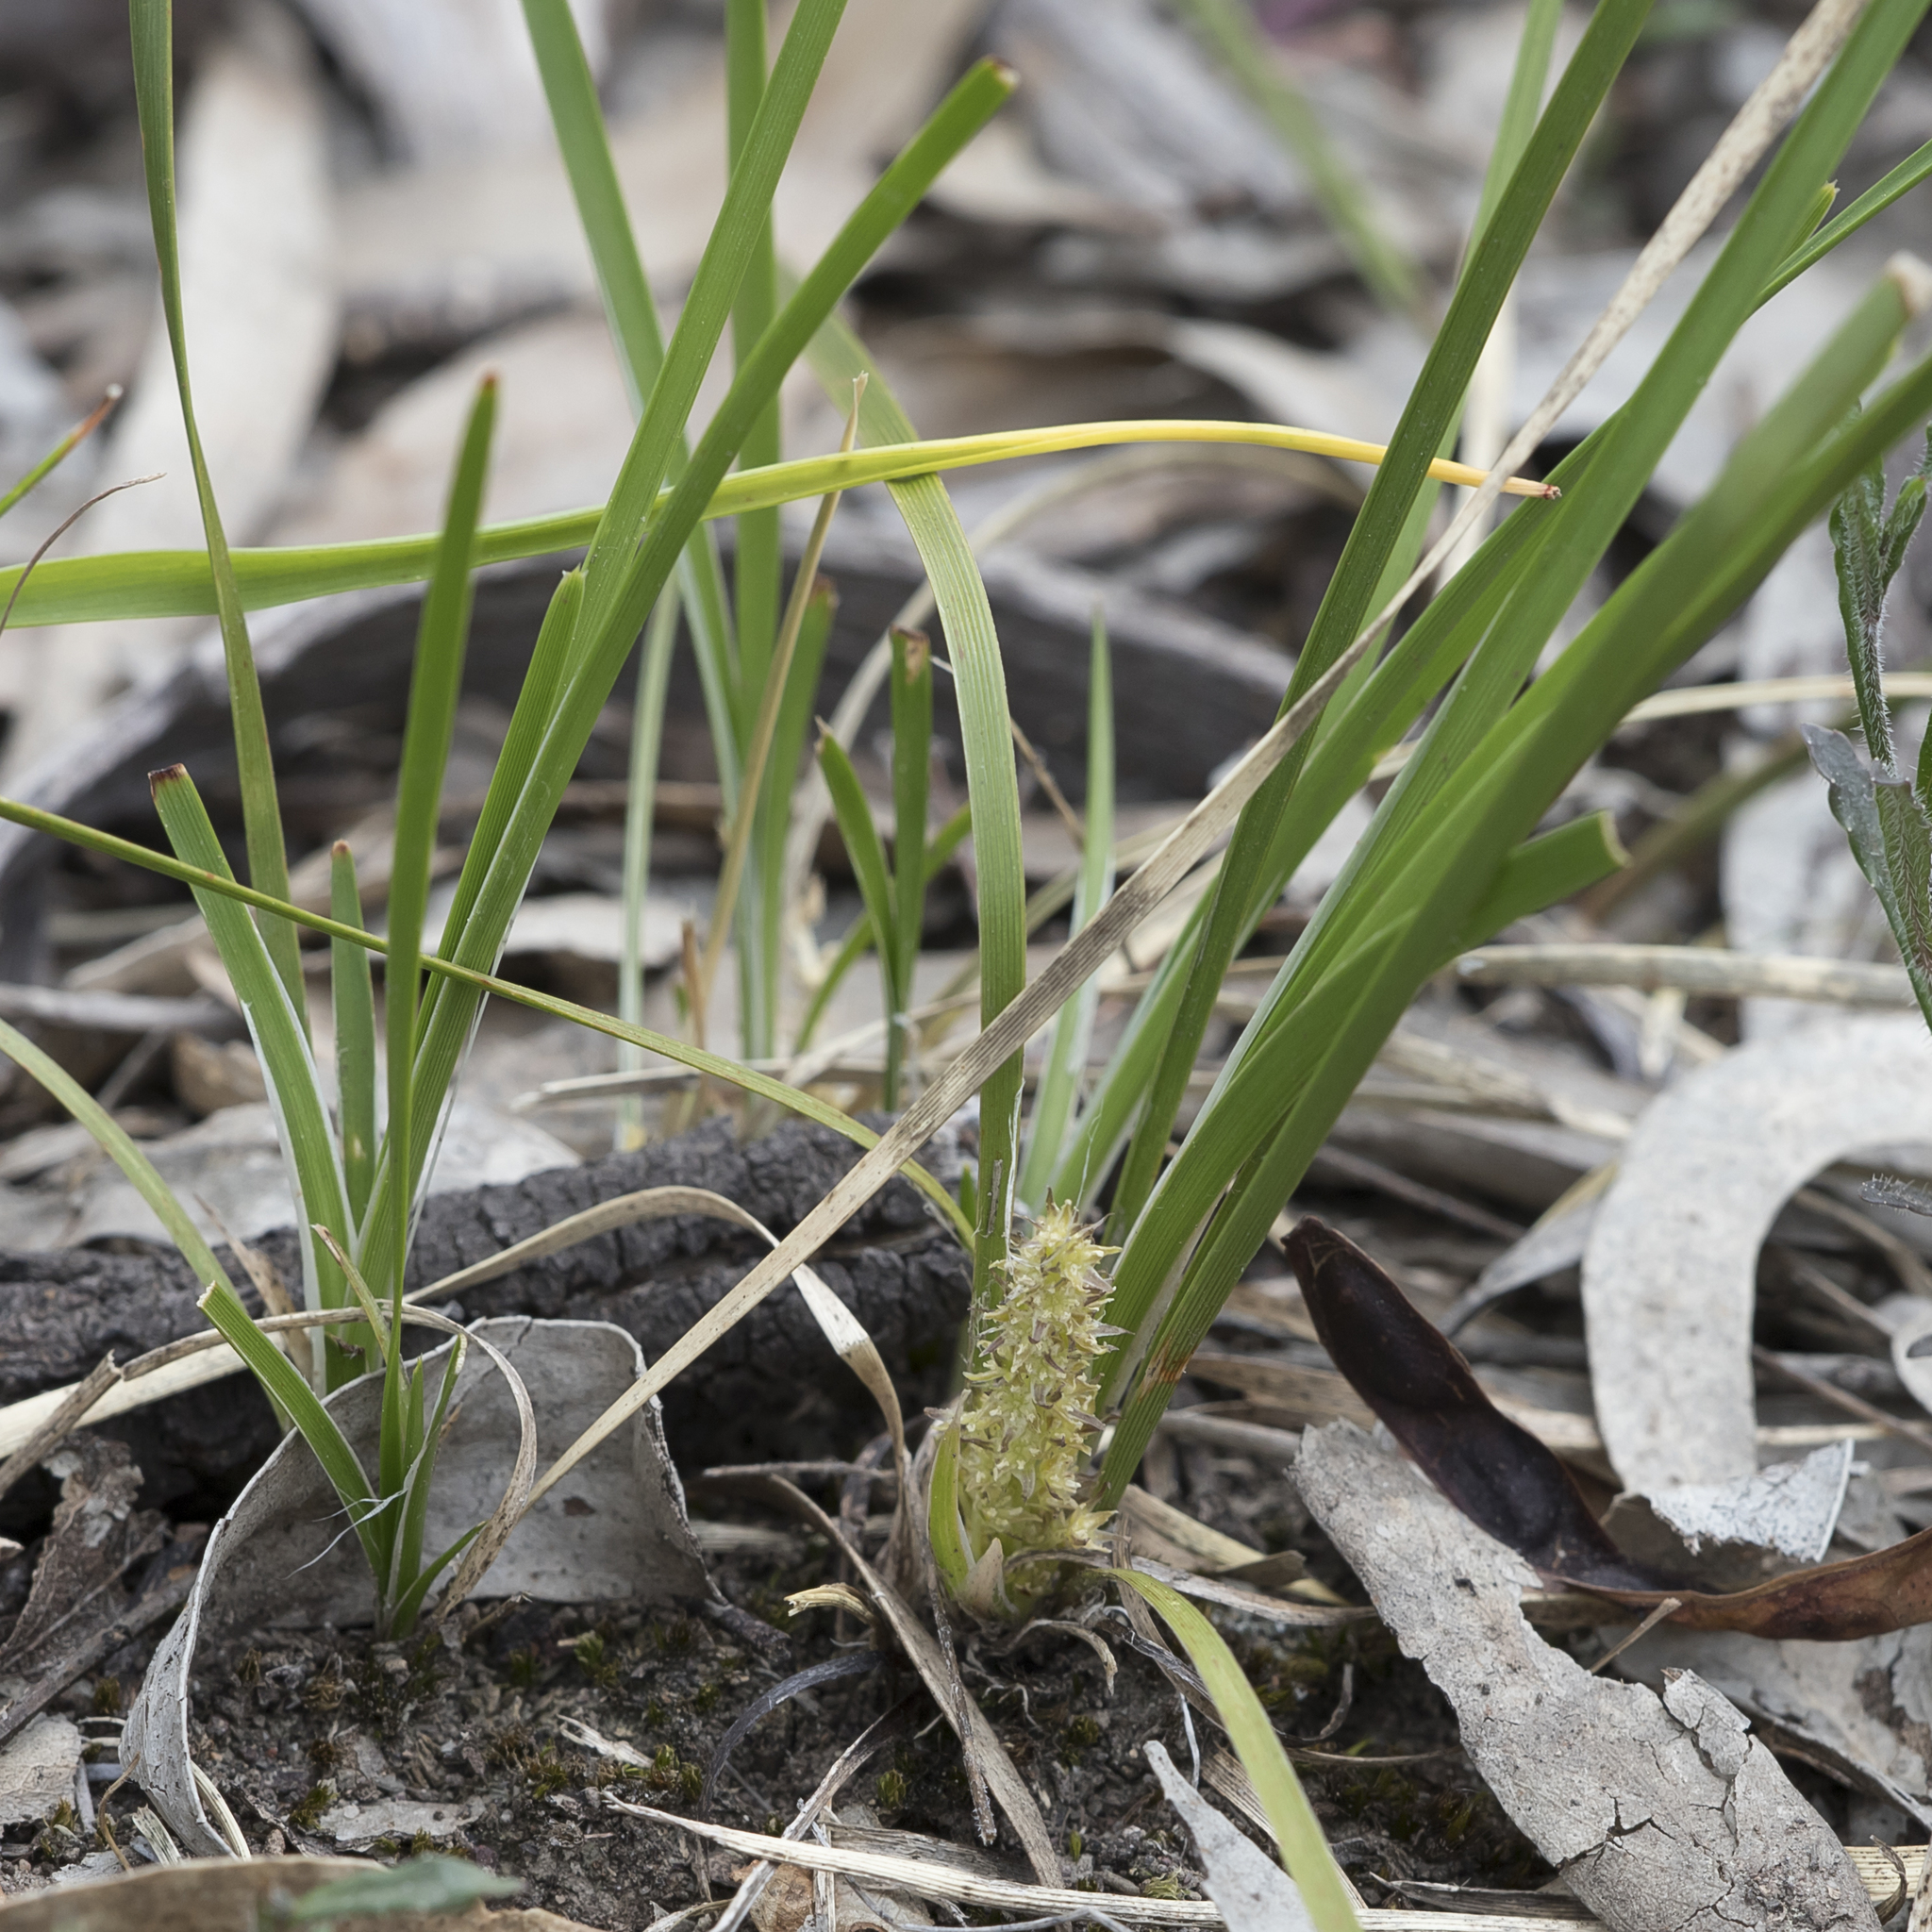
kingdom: Plantae
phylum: Tracheophyta
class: Liliopsida
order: Asparagales
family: Asparagaceae
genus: Lomandra
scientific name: Lomandra densiflora
